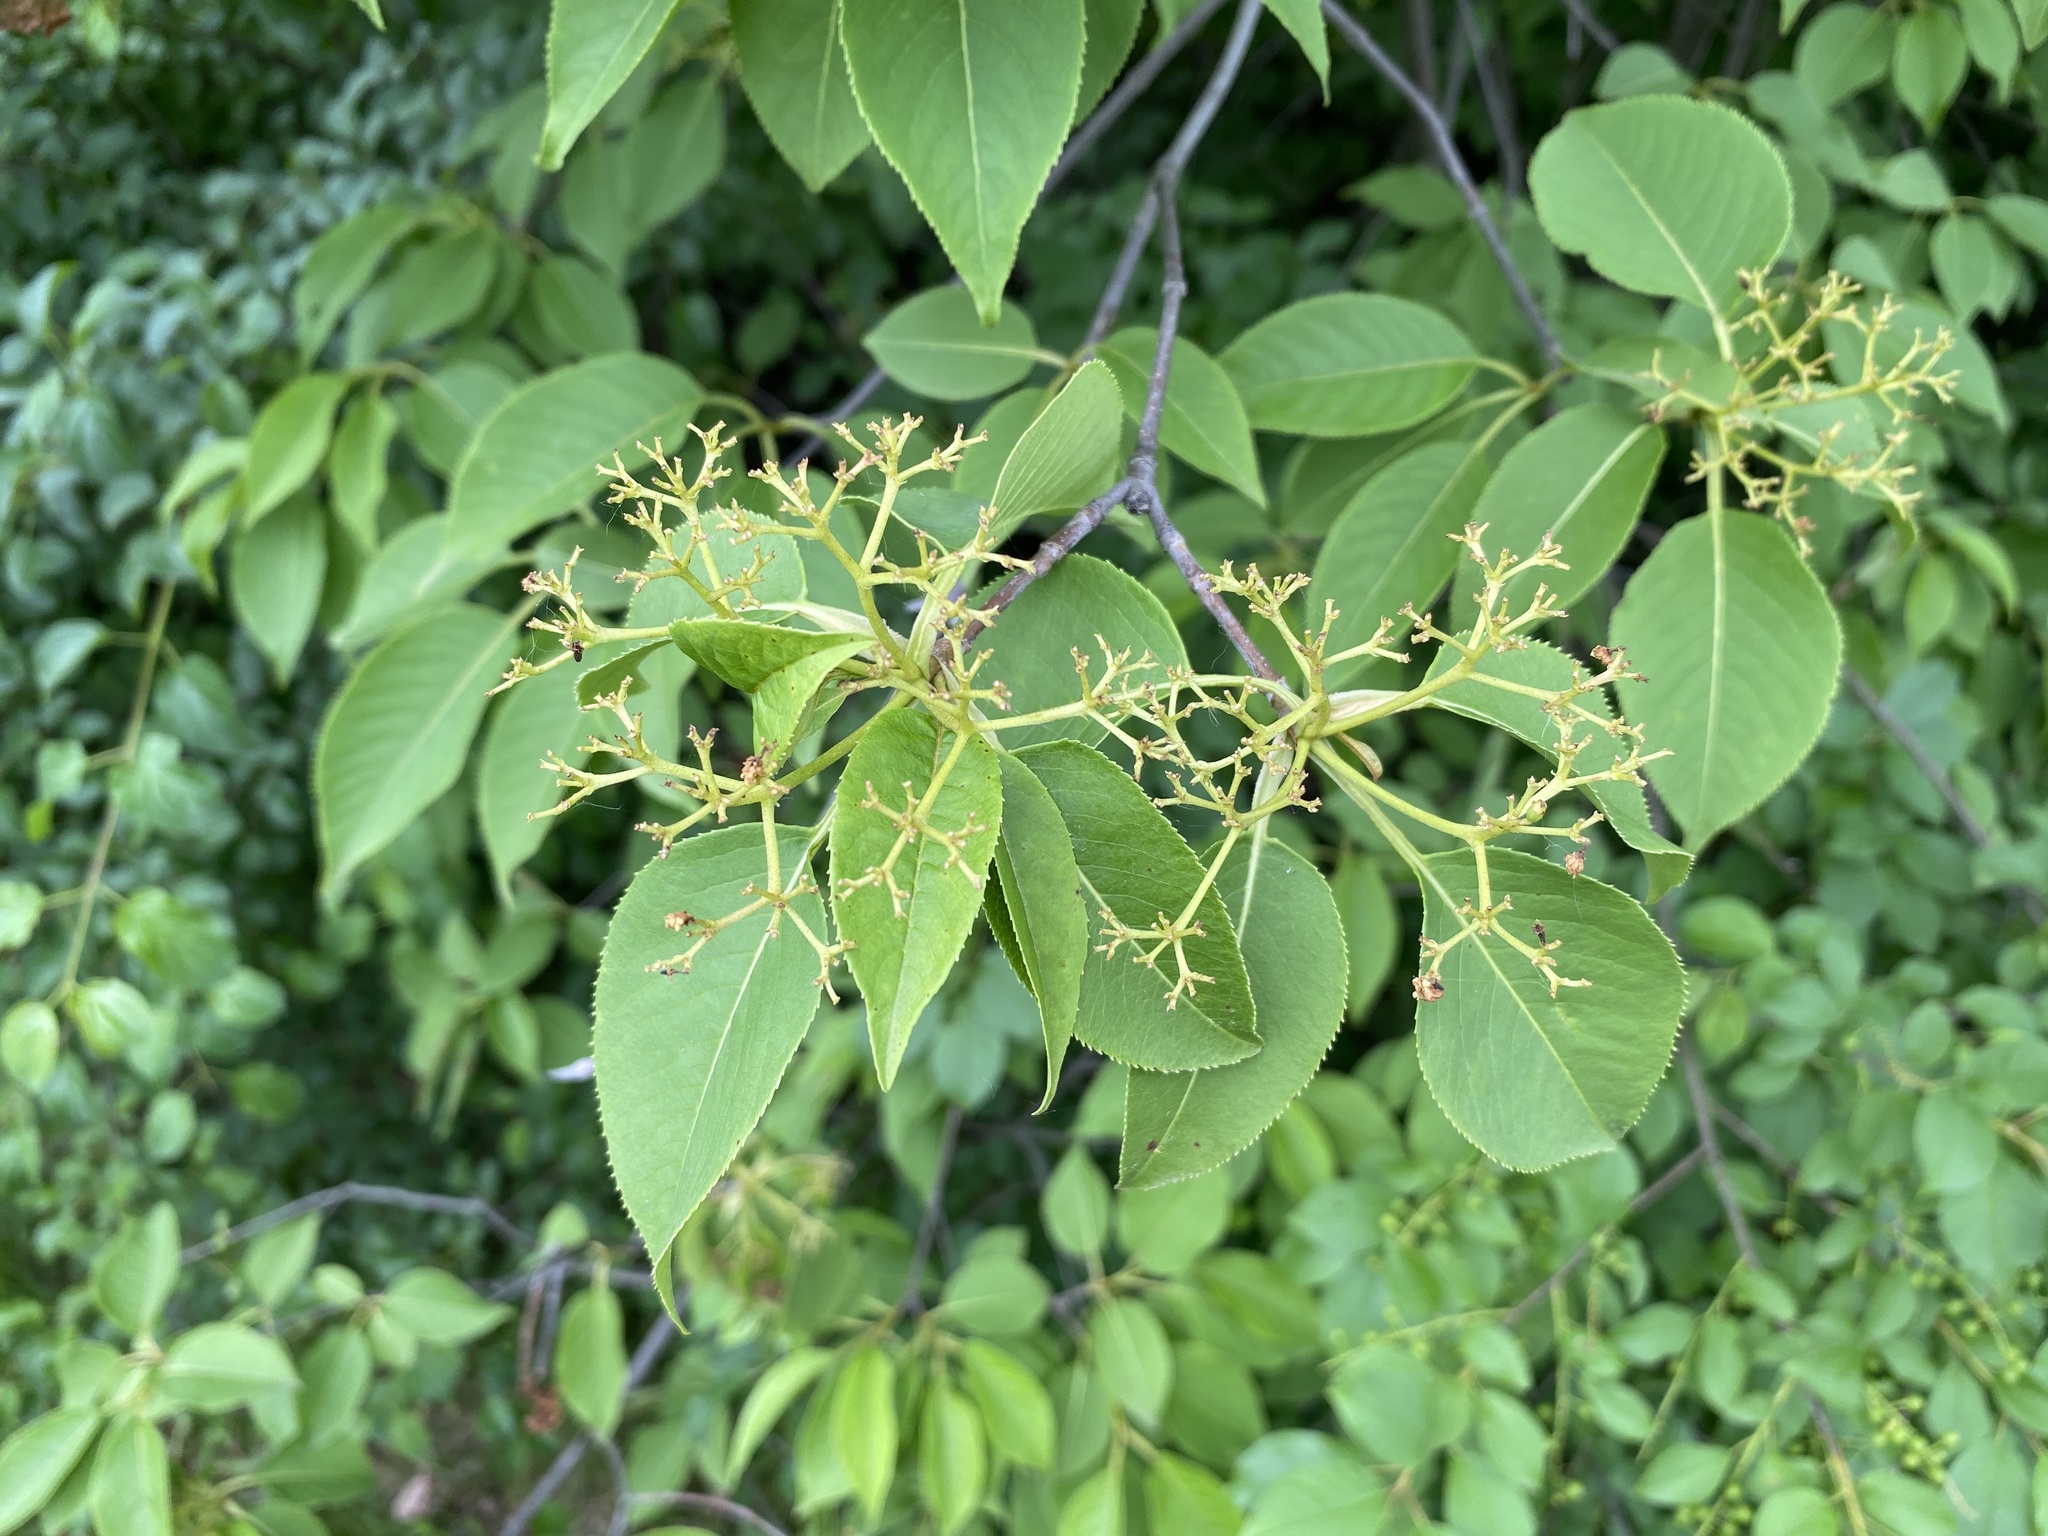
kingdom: Plantae
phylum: Tracheophyta
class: Magnoliopsida
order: Dipsacales
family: Viburnaceae
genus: Viburnum
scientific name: Viburnum lentago
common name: Black haw
